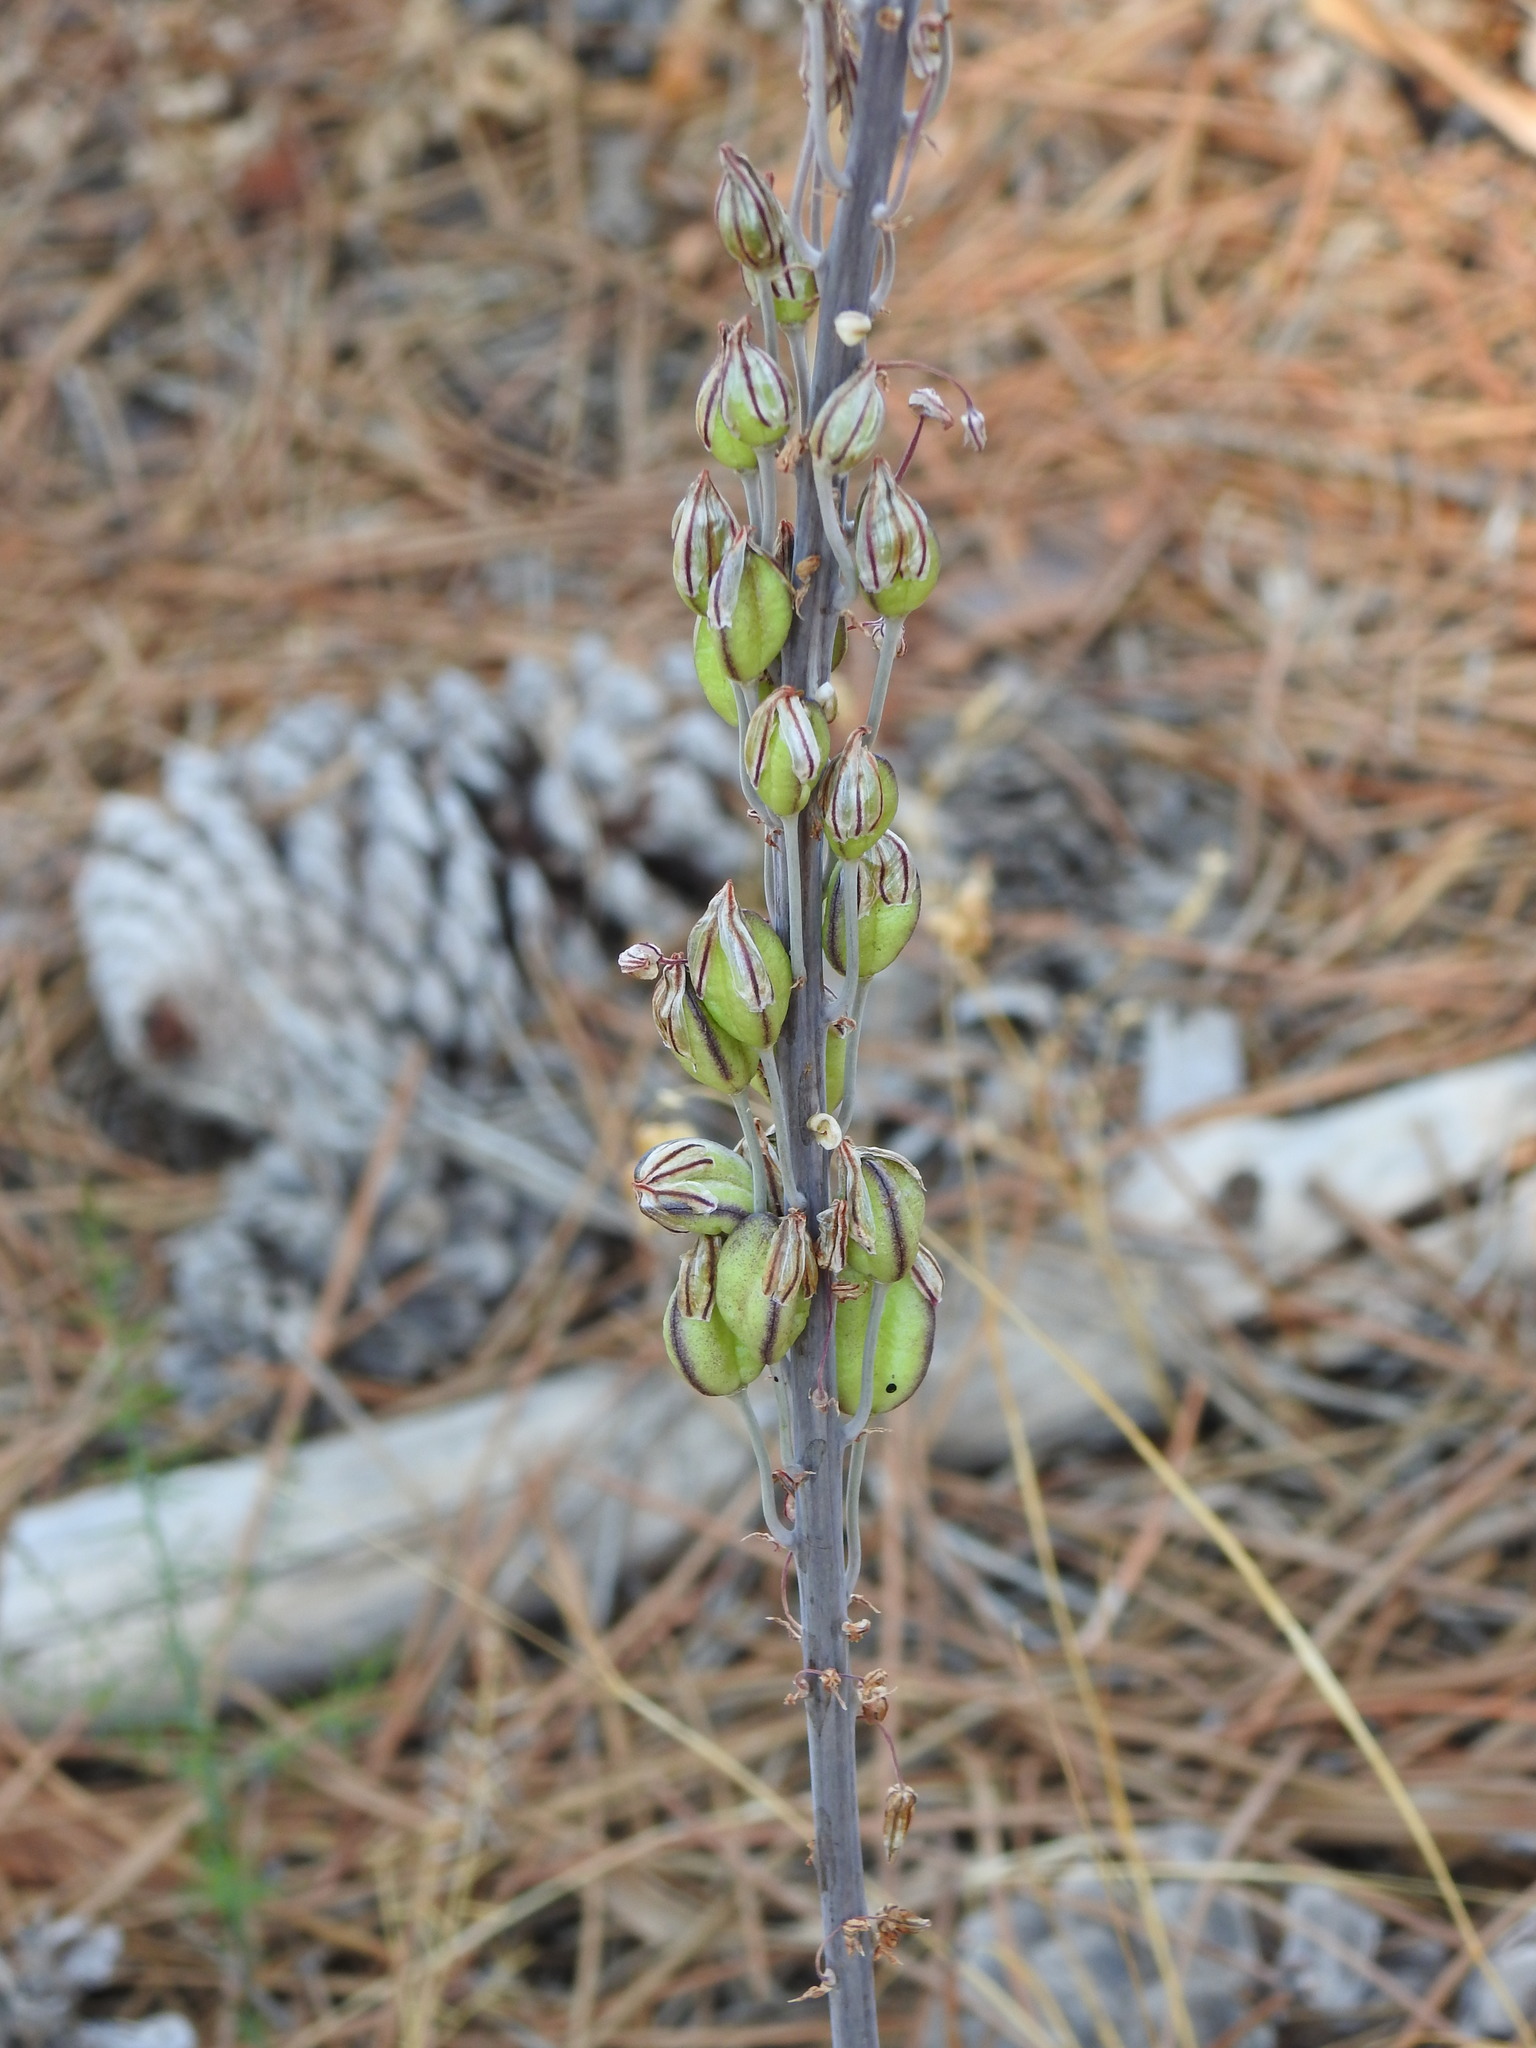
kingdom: Plantae
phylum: Tracheophyta
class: Liliopsida
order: Asparagales
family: Asparagaceae
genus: Drimia
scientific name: Drimia maritima
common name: Maritime squill
